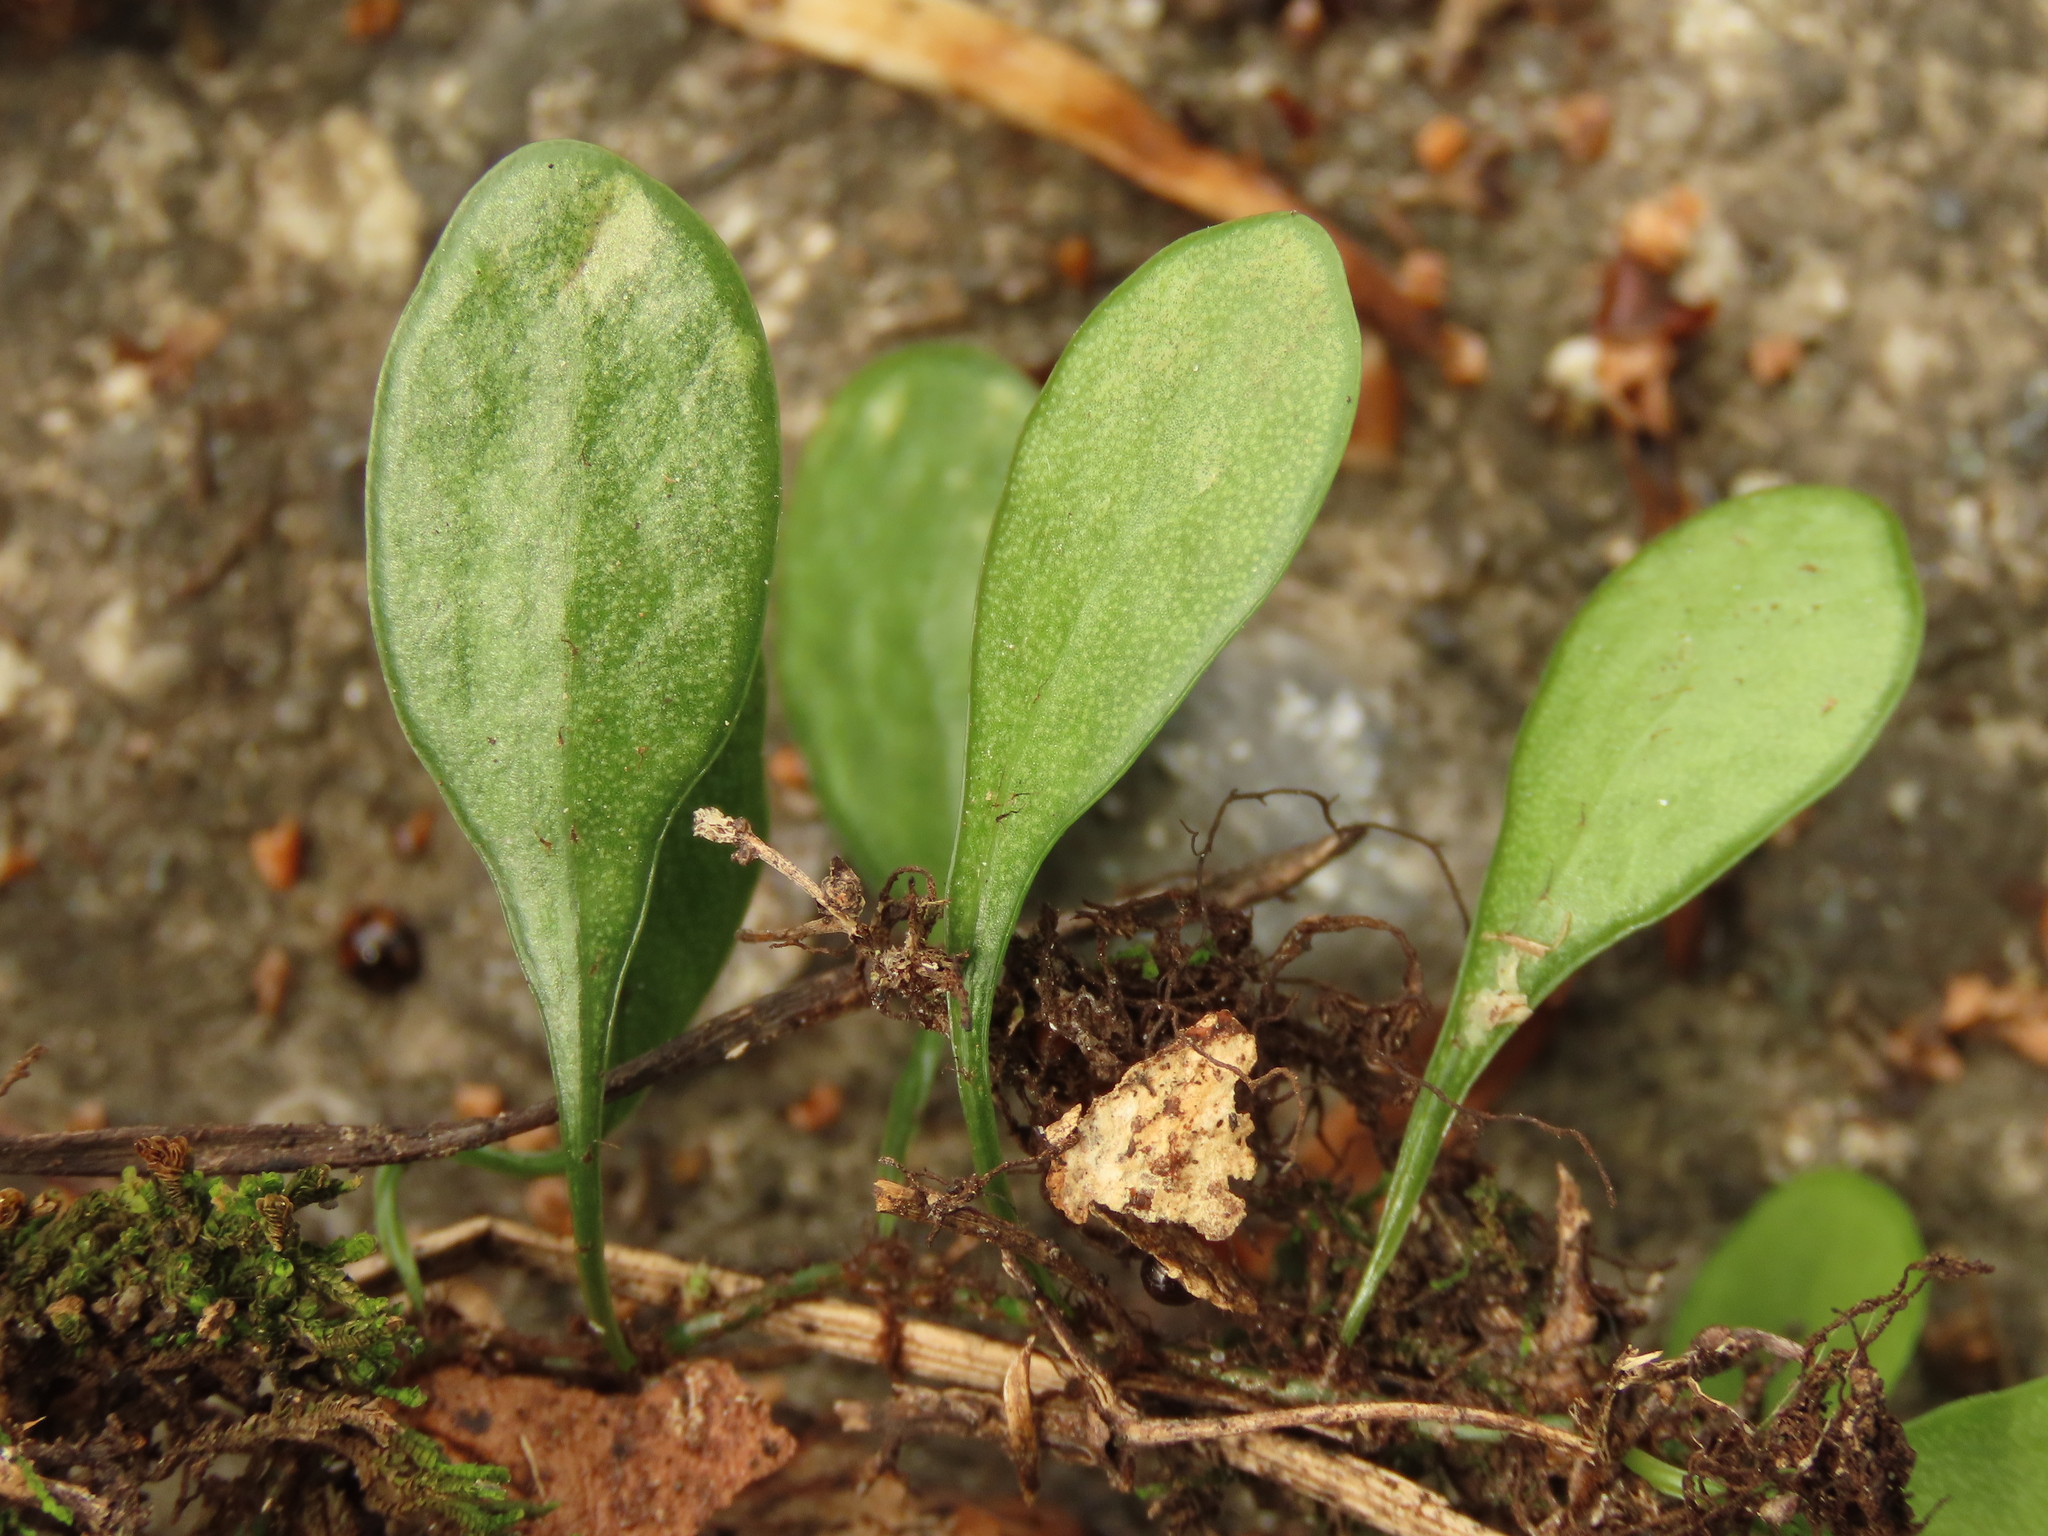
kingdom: Plantae
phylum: Tracheophyta
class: Polypodiopsida
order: Polypodiales
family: Polypodiaceae
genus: Lepisorus
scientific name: Lepisorus microphyllus
